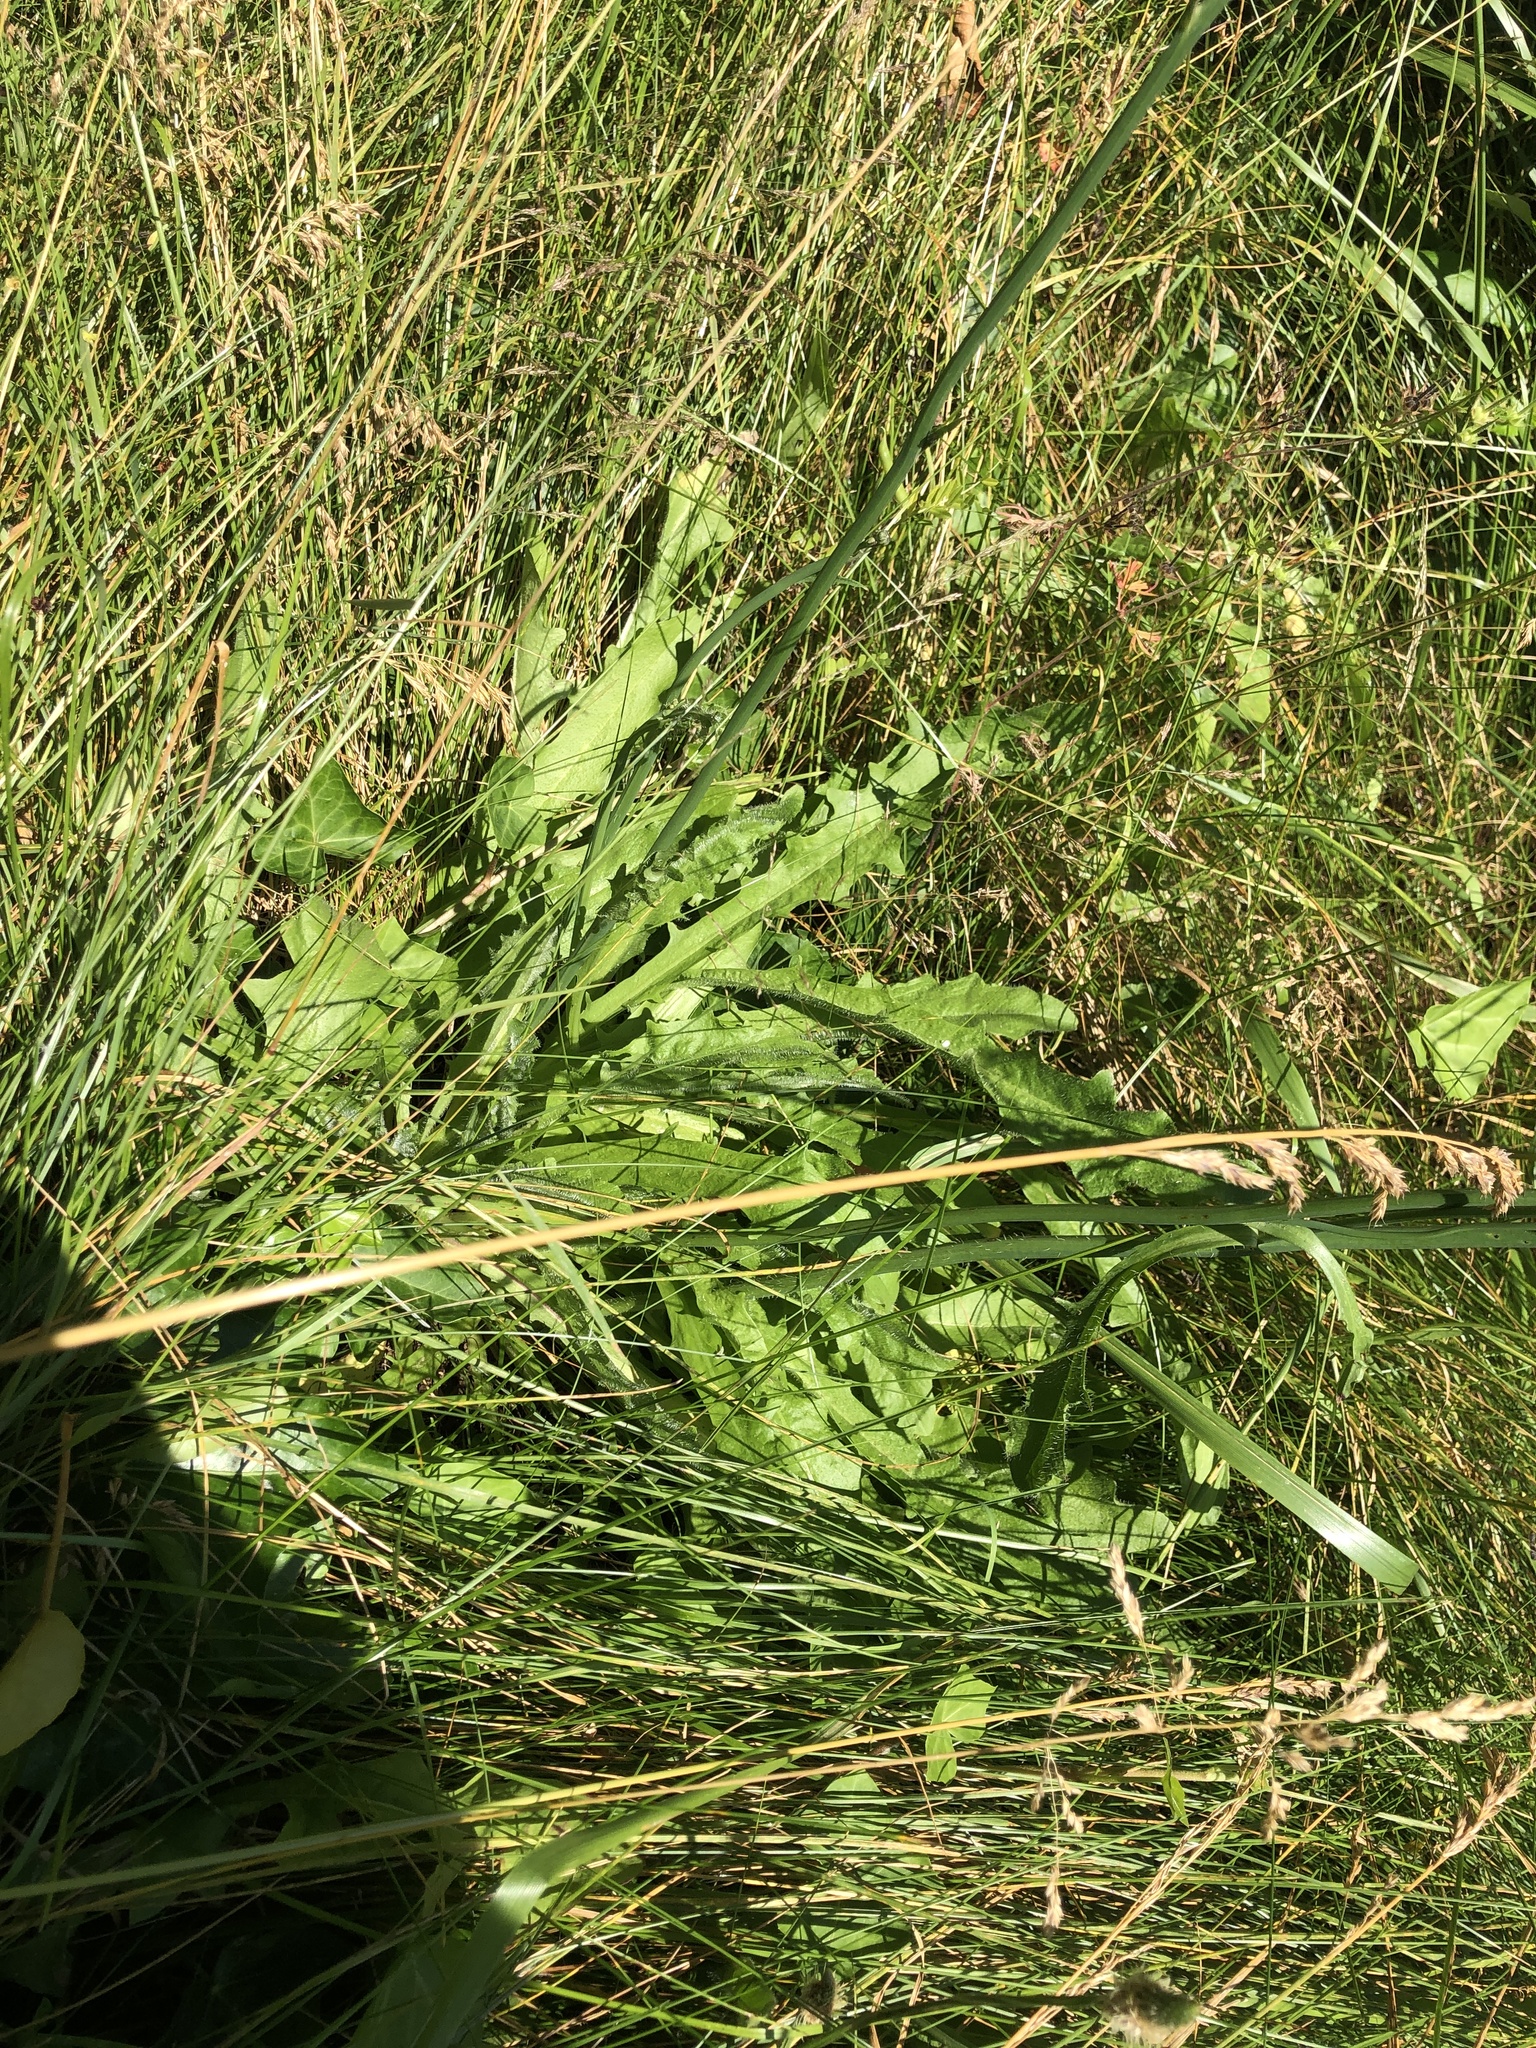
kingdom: Plantae
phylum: Tracheophyta
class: Magnoliopsida
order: Asterales
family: Asteraceae
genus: Hypochaeris
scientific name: Hypochaeris radicata
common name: Flatweed
